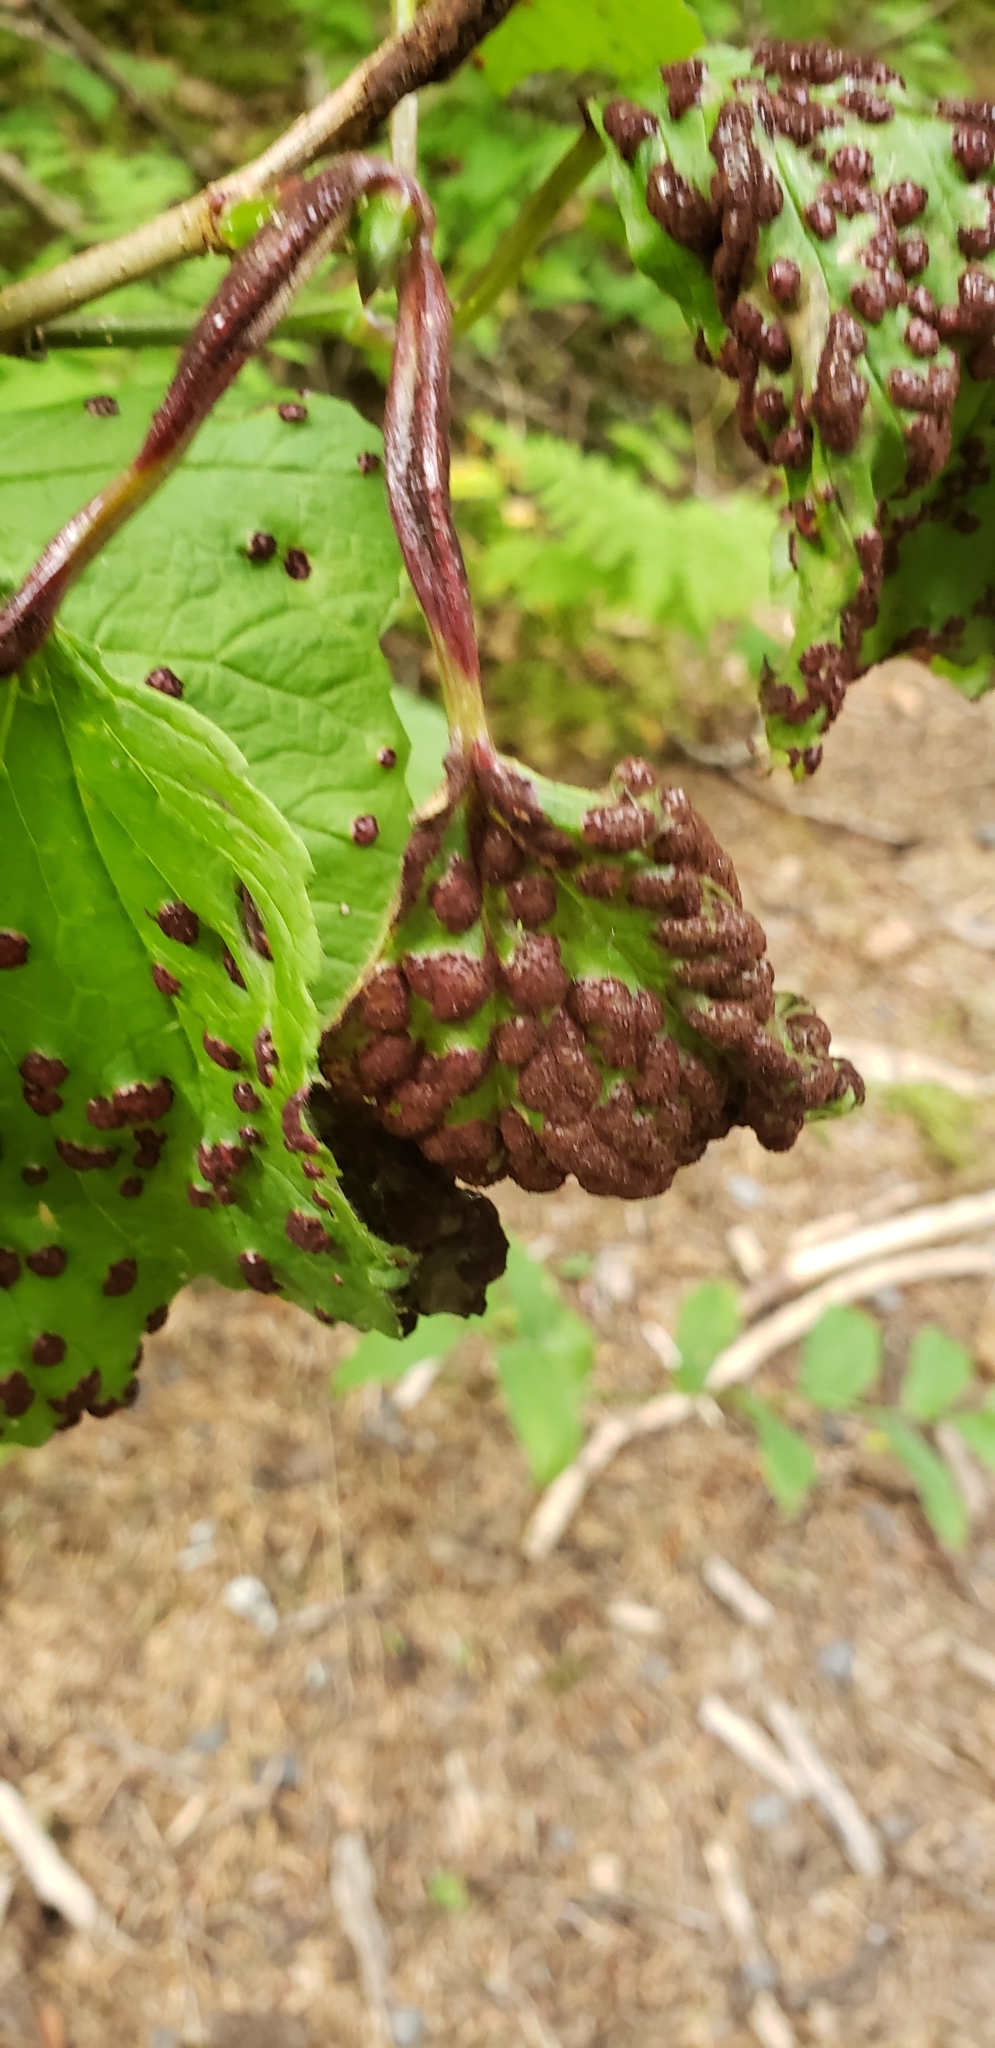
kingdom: Fungi
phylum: Basidiomycota
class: Pucciniomycetes
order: Pucciniales
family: Pucciniaceae
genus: Puccinia
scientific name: Puccinia linkii
